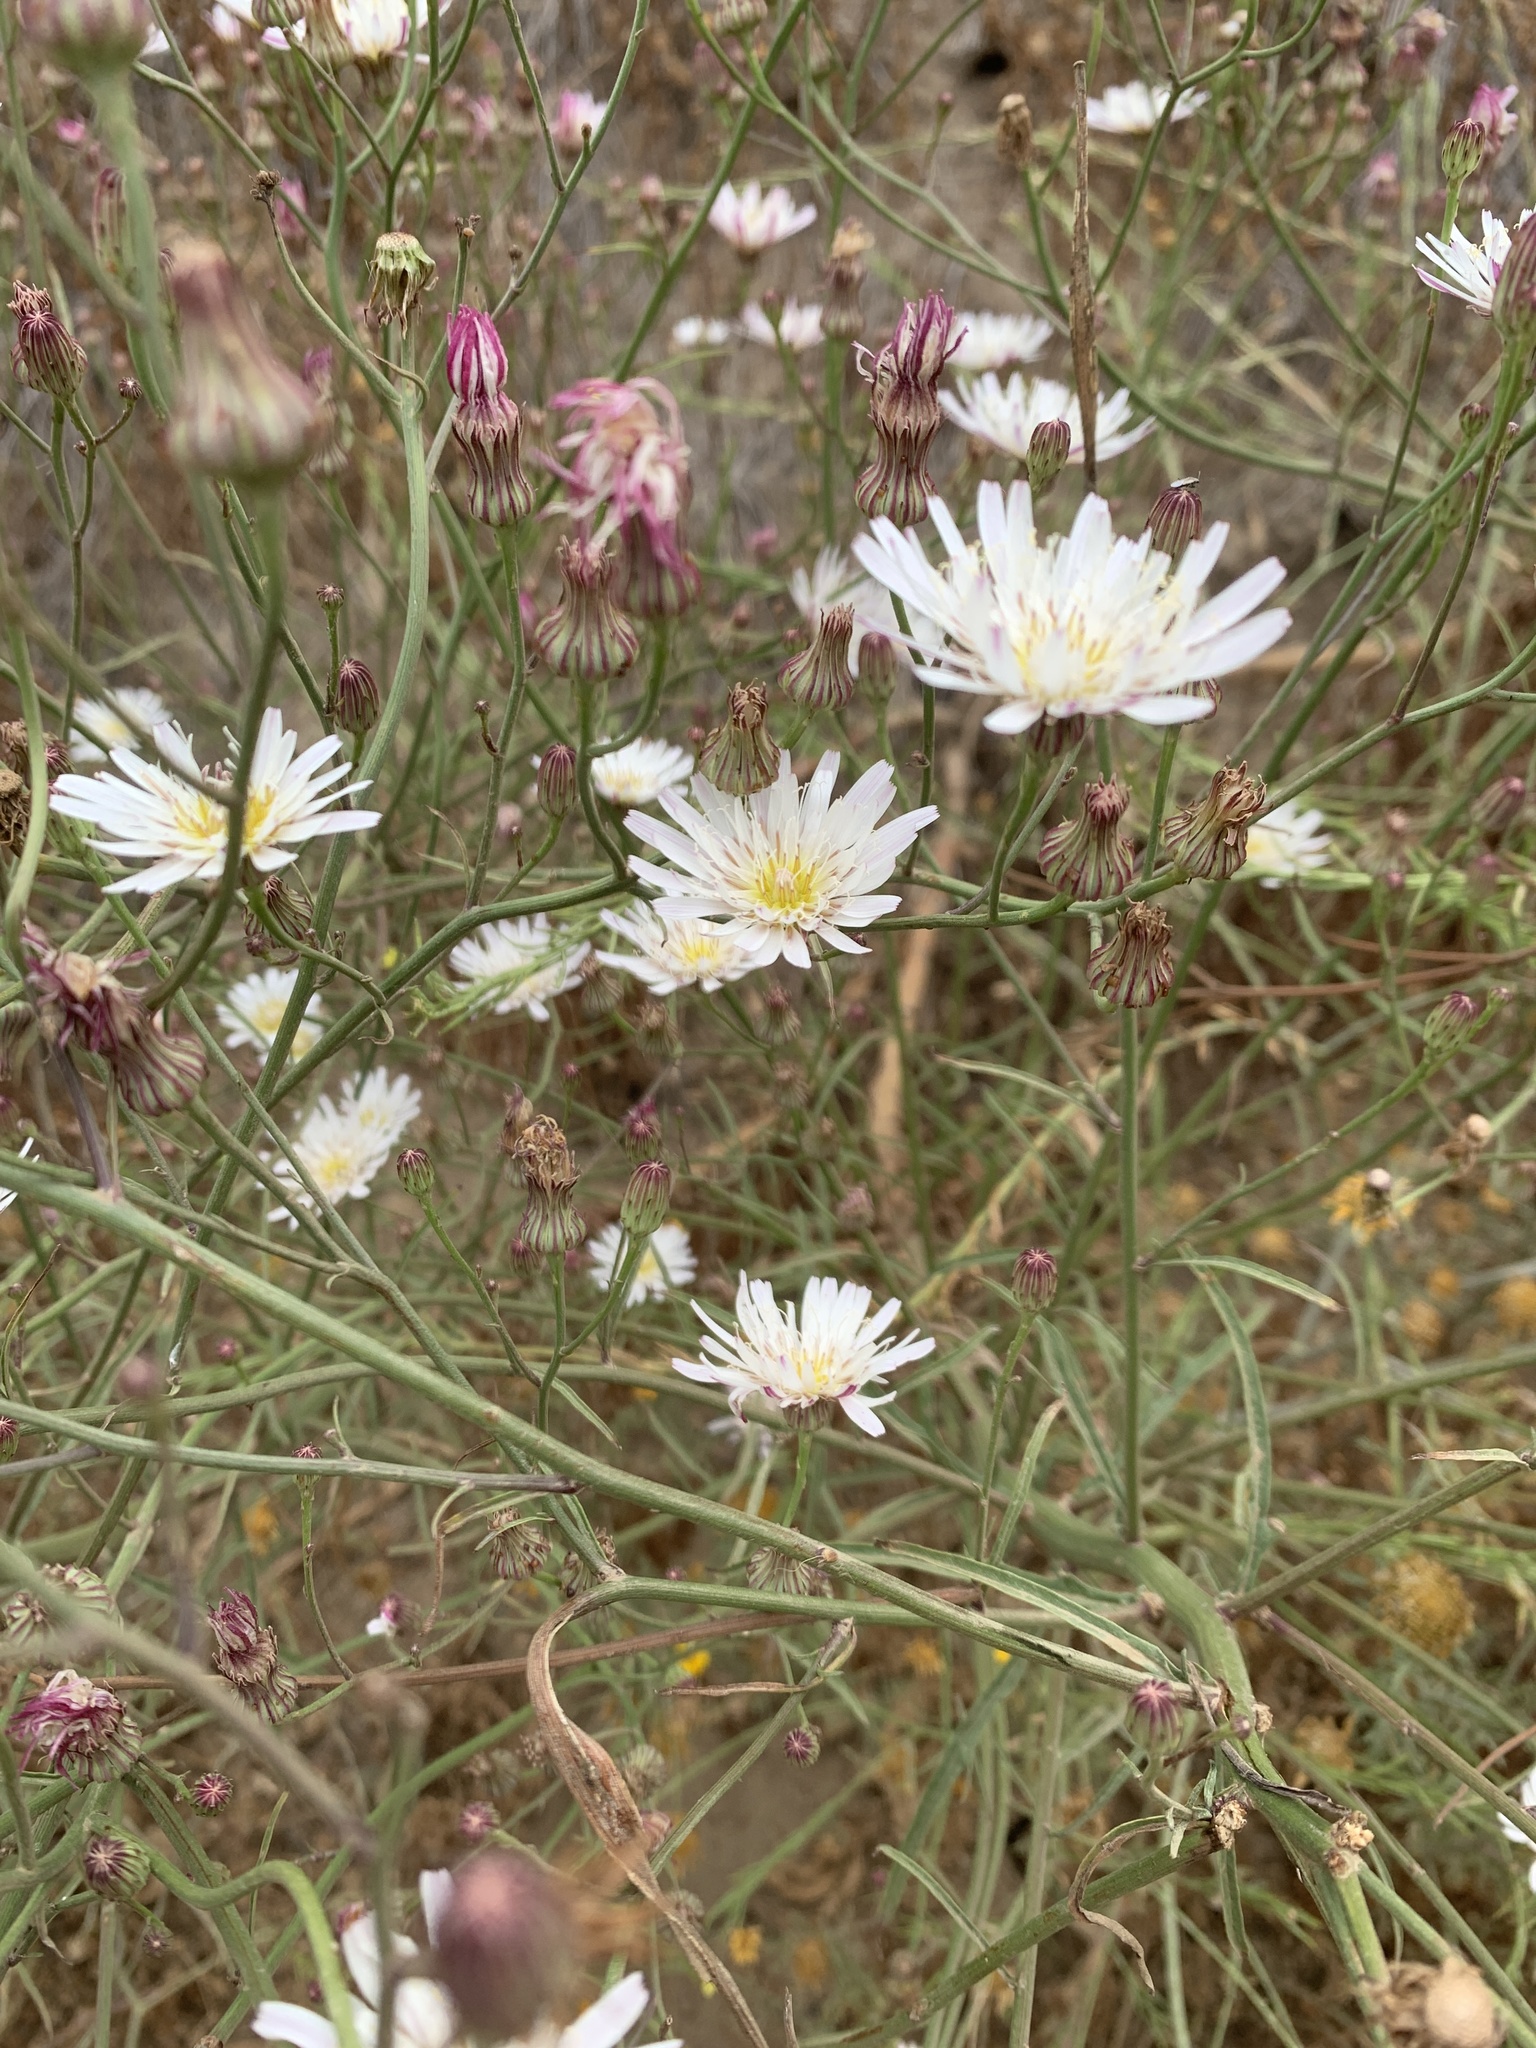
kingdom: Plantae
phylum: Tracheophyta
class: Magnoliopsida
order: Asterales
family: Asteraceae
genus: Malacothrix
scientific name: Malacothrix saxatilis
